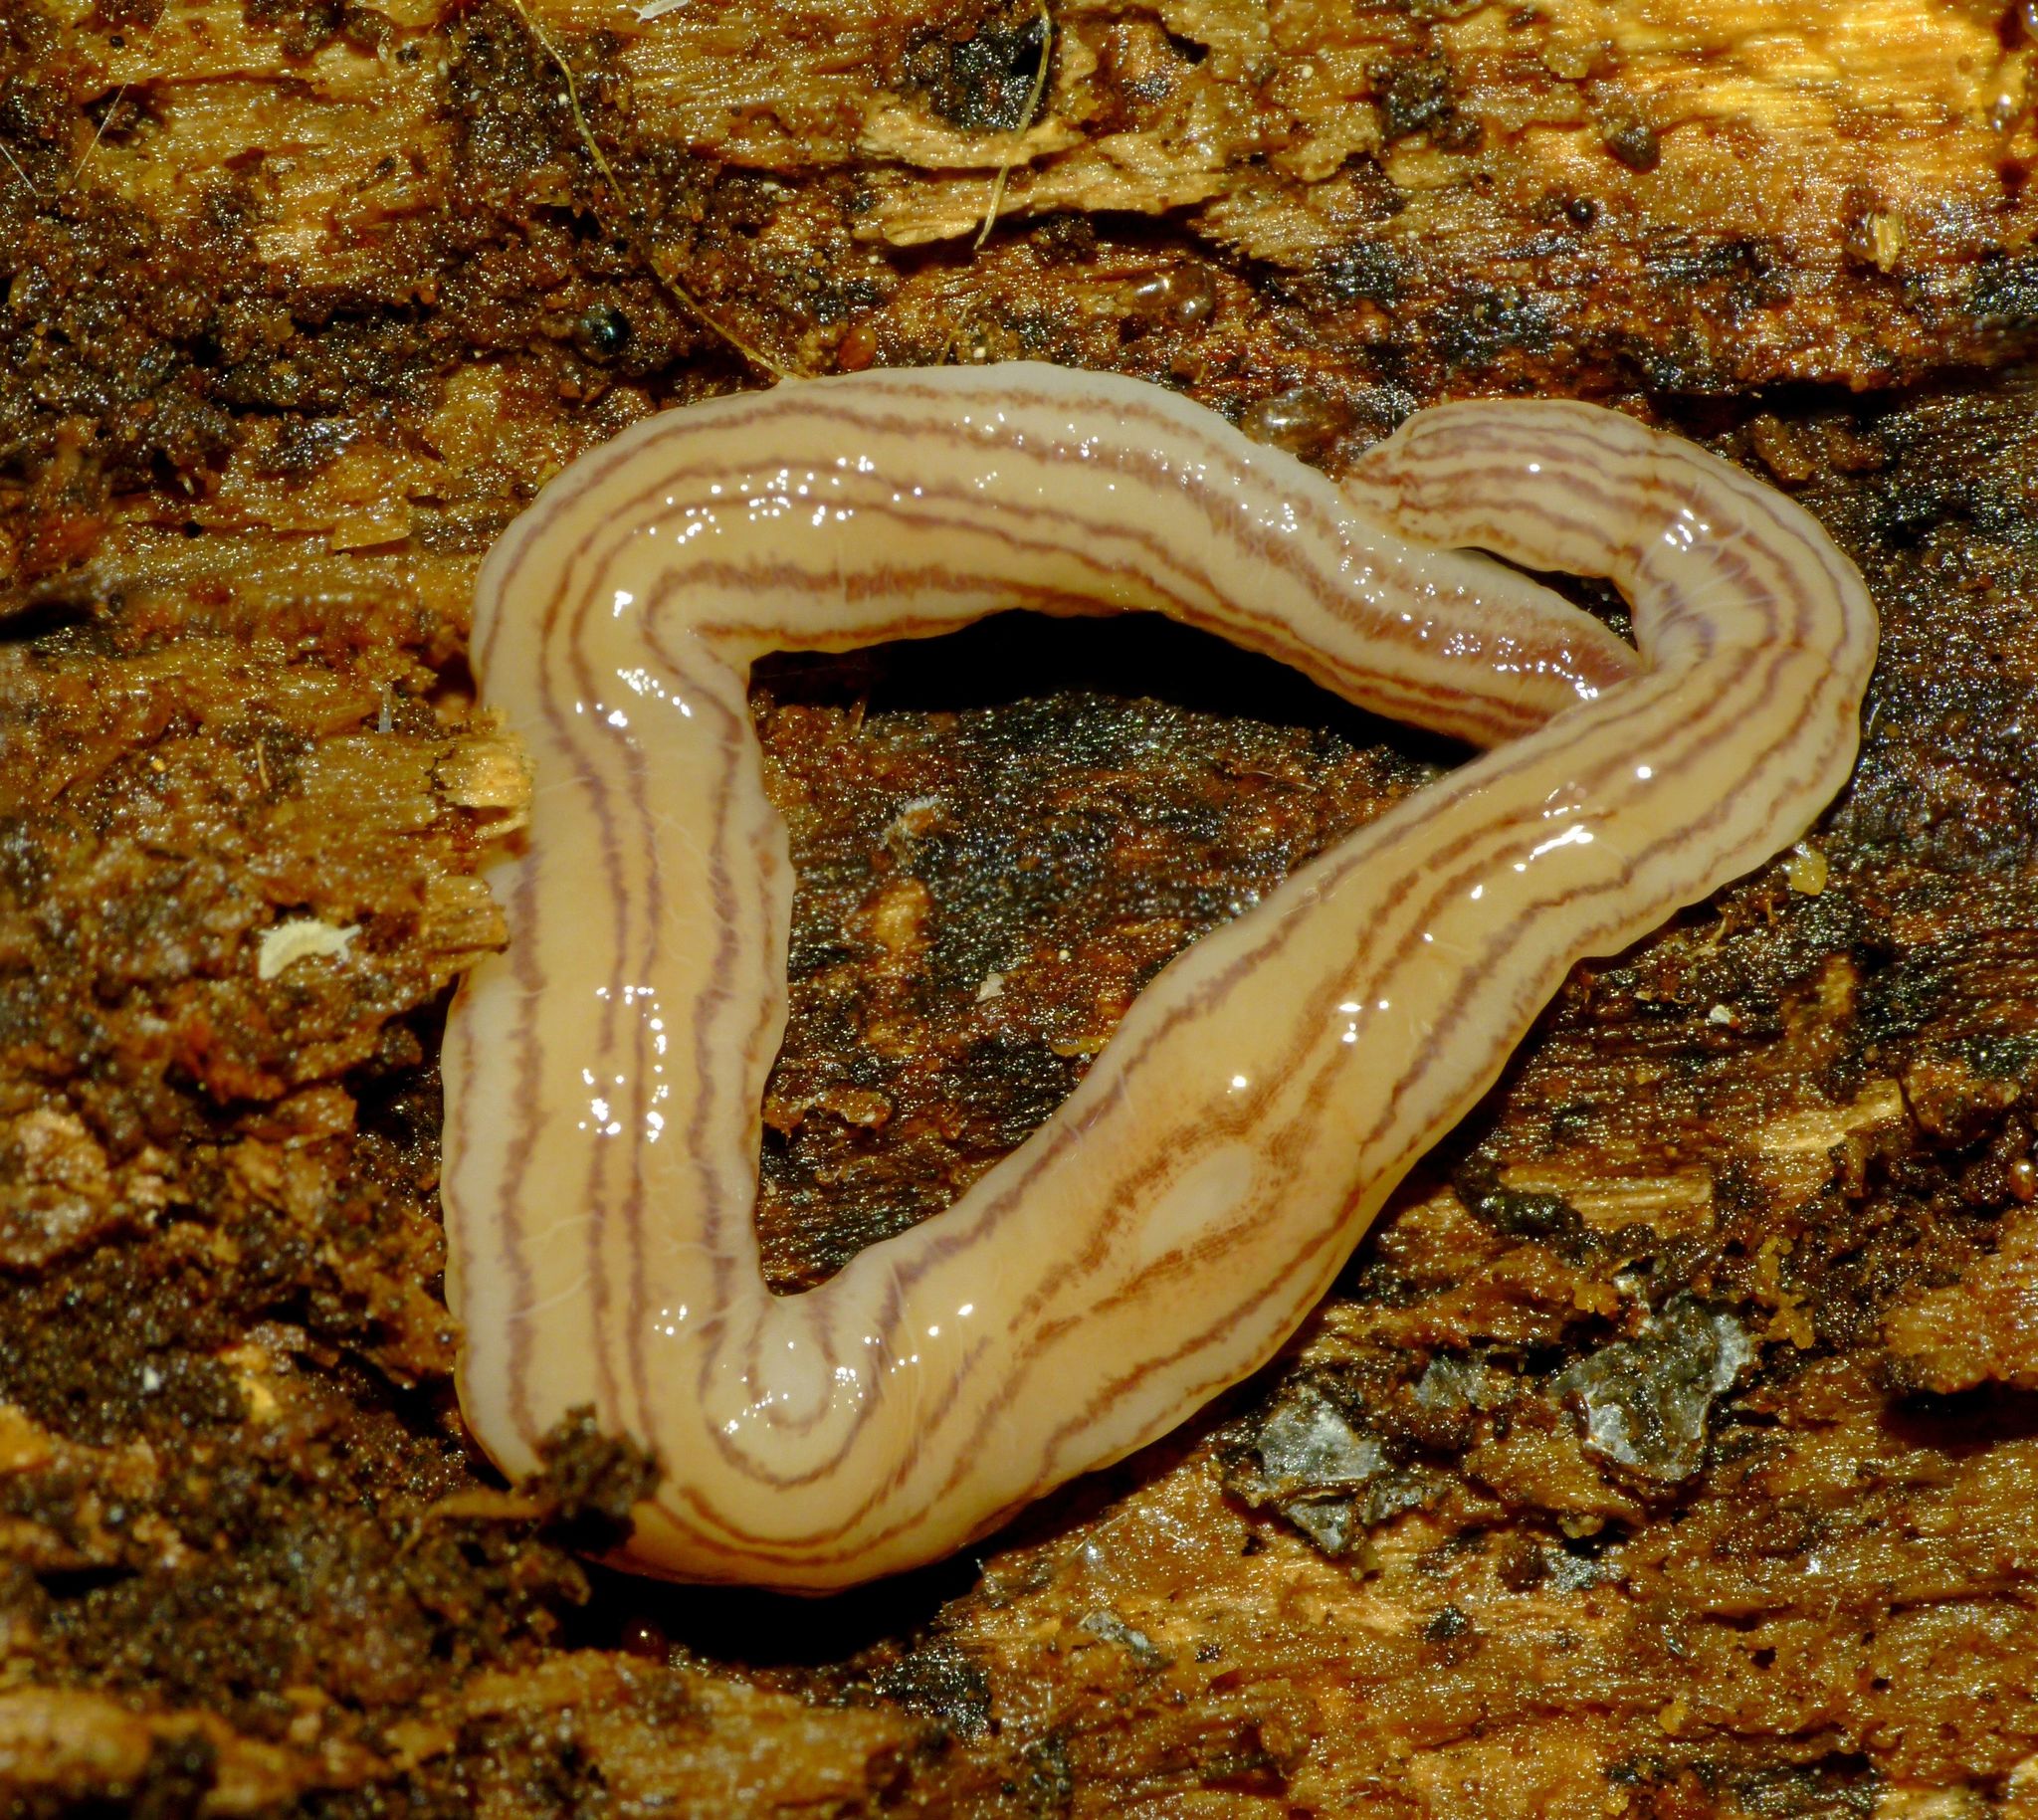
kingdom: Animalia
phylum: Platyhelminthes
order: Tricladida
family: Geoplanidae
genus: Artioposthia
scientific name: Artioposthia suteri
